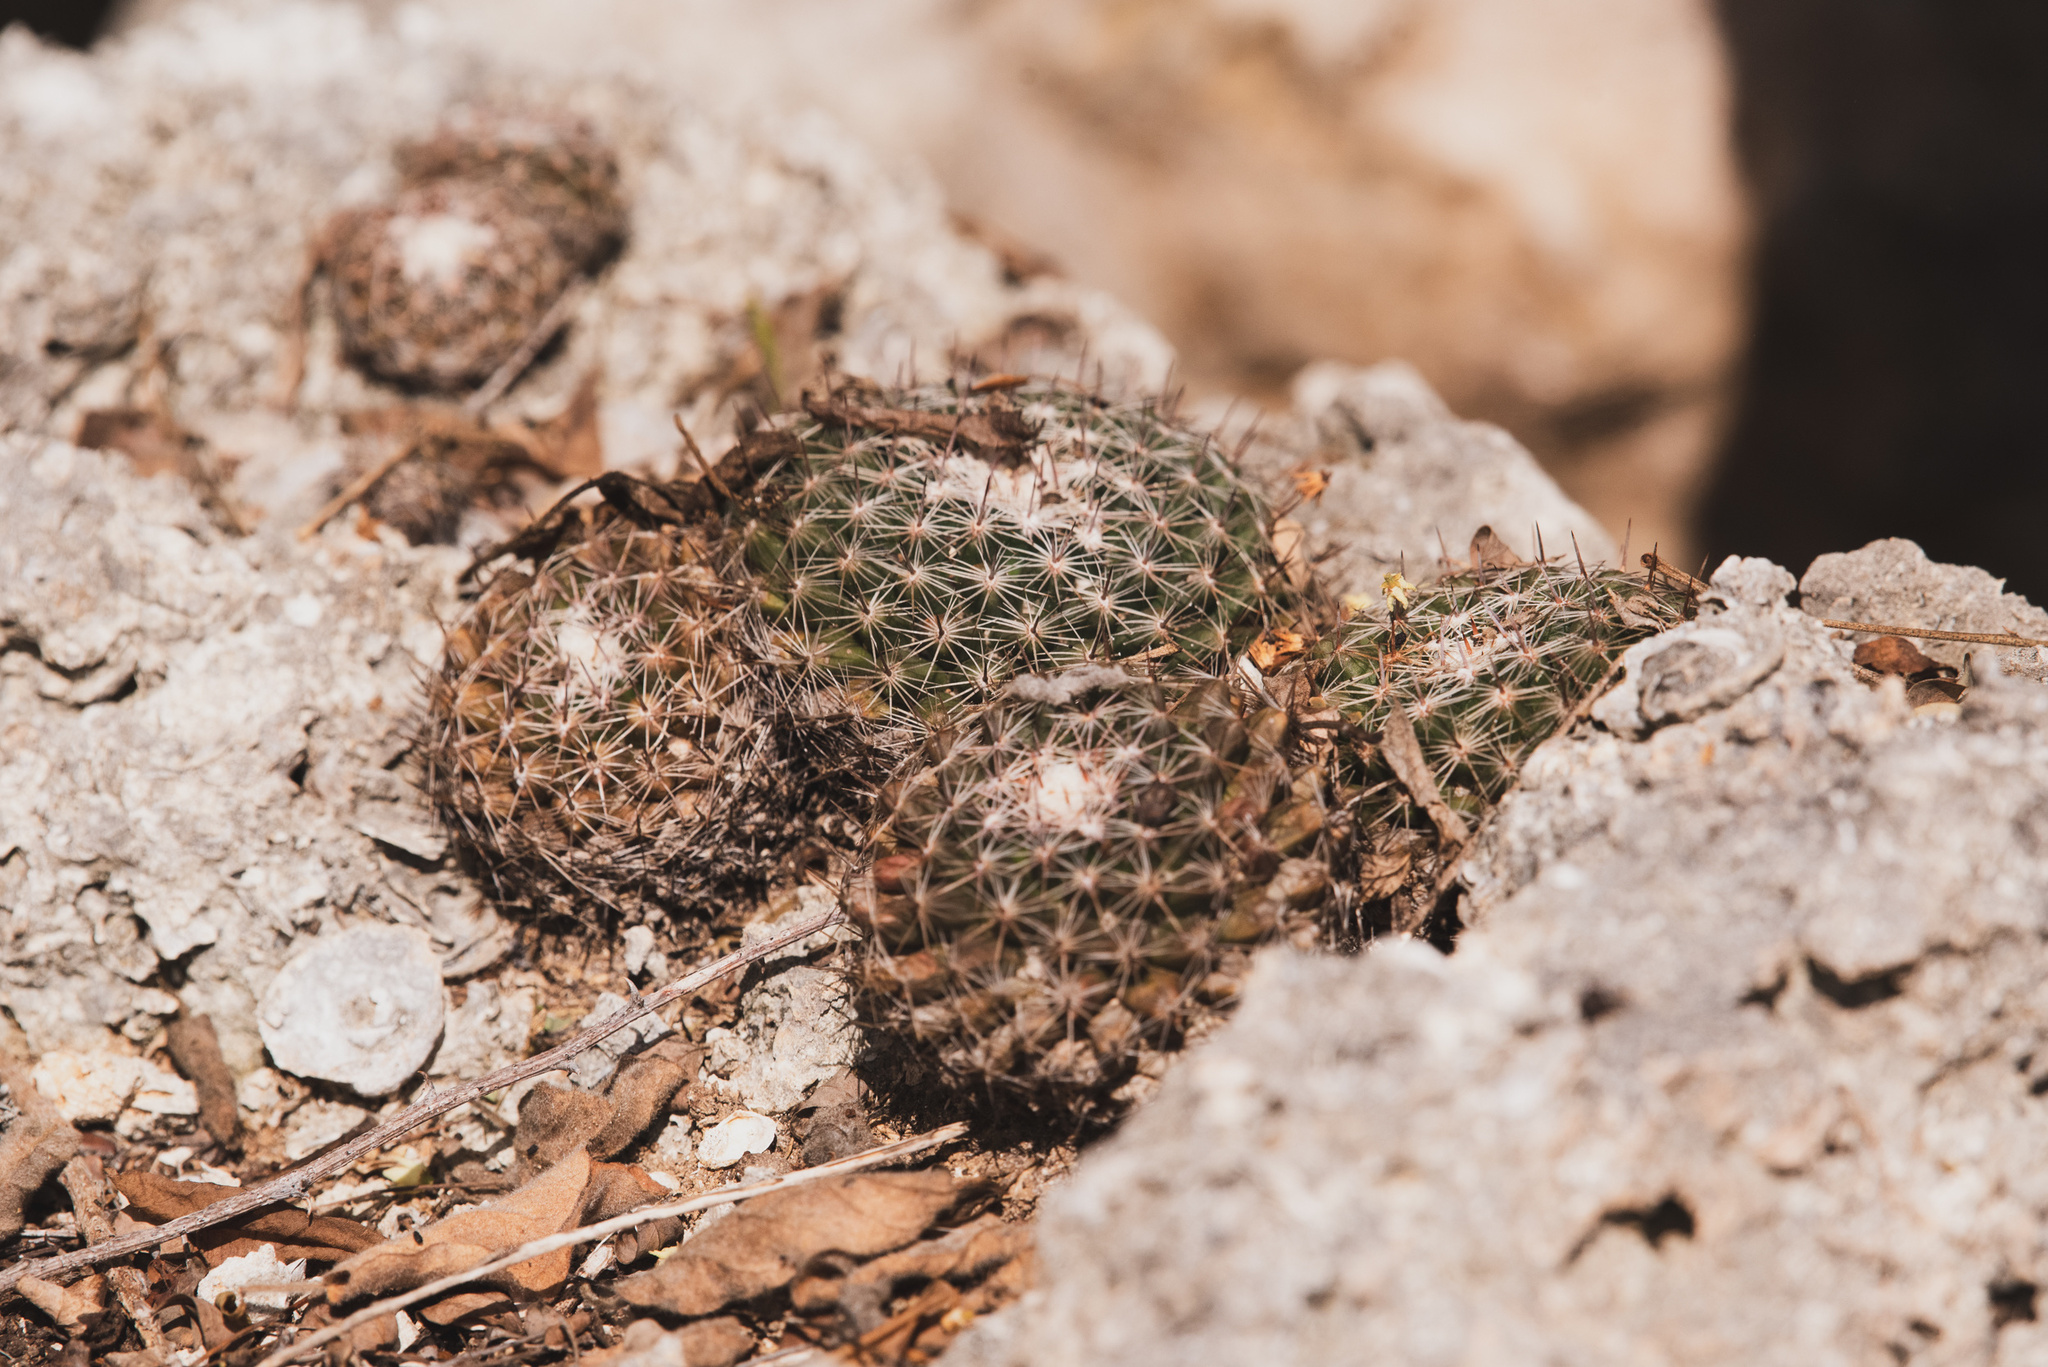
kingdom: Plantae
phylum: Tracheophyta
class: Magnoliopsida
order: Caryophyllales
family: Cactaceae
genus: Mammillaria
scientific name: Mammillaria heyderi
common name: Little nipple cactus
